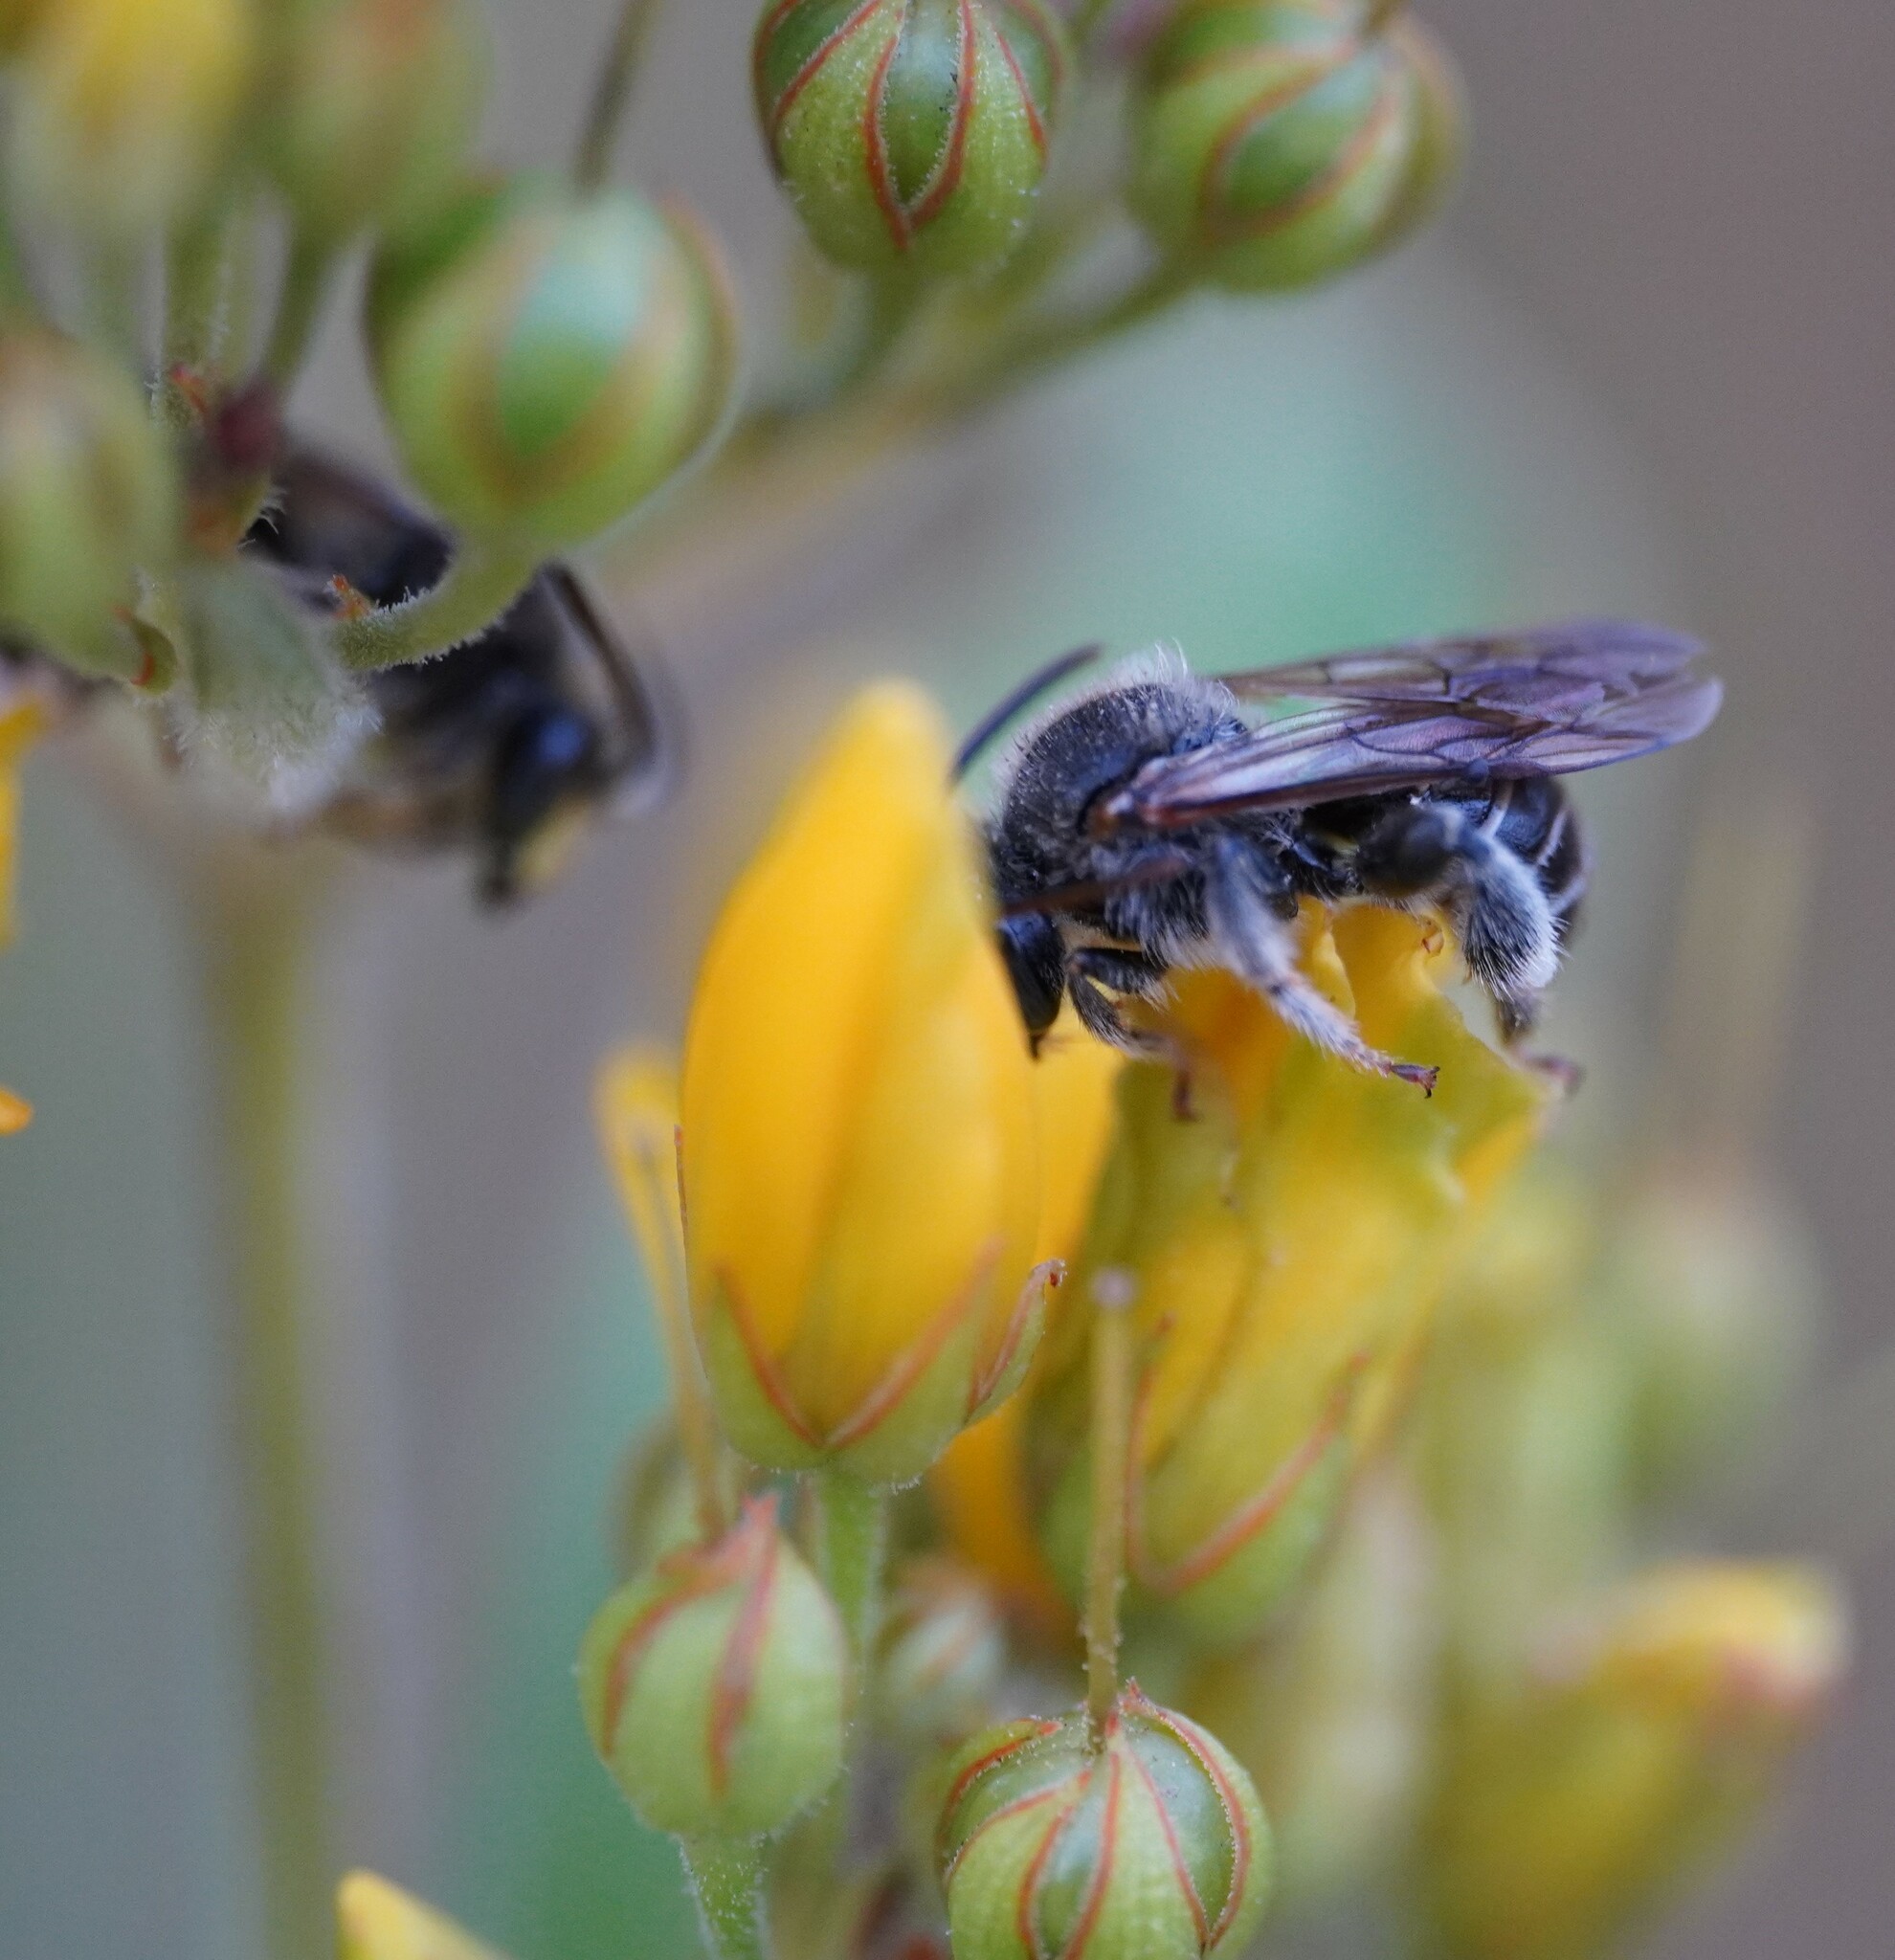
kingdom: Animalia
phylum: Arthropoda
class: Insecta
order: Hymenoptera
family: Melittidae
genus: Macropis
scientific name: Macropis europaea
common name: Yellow loosestrife bee
